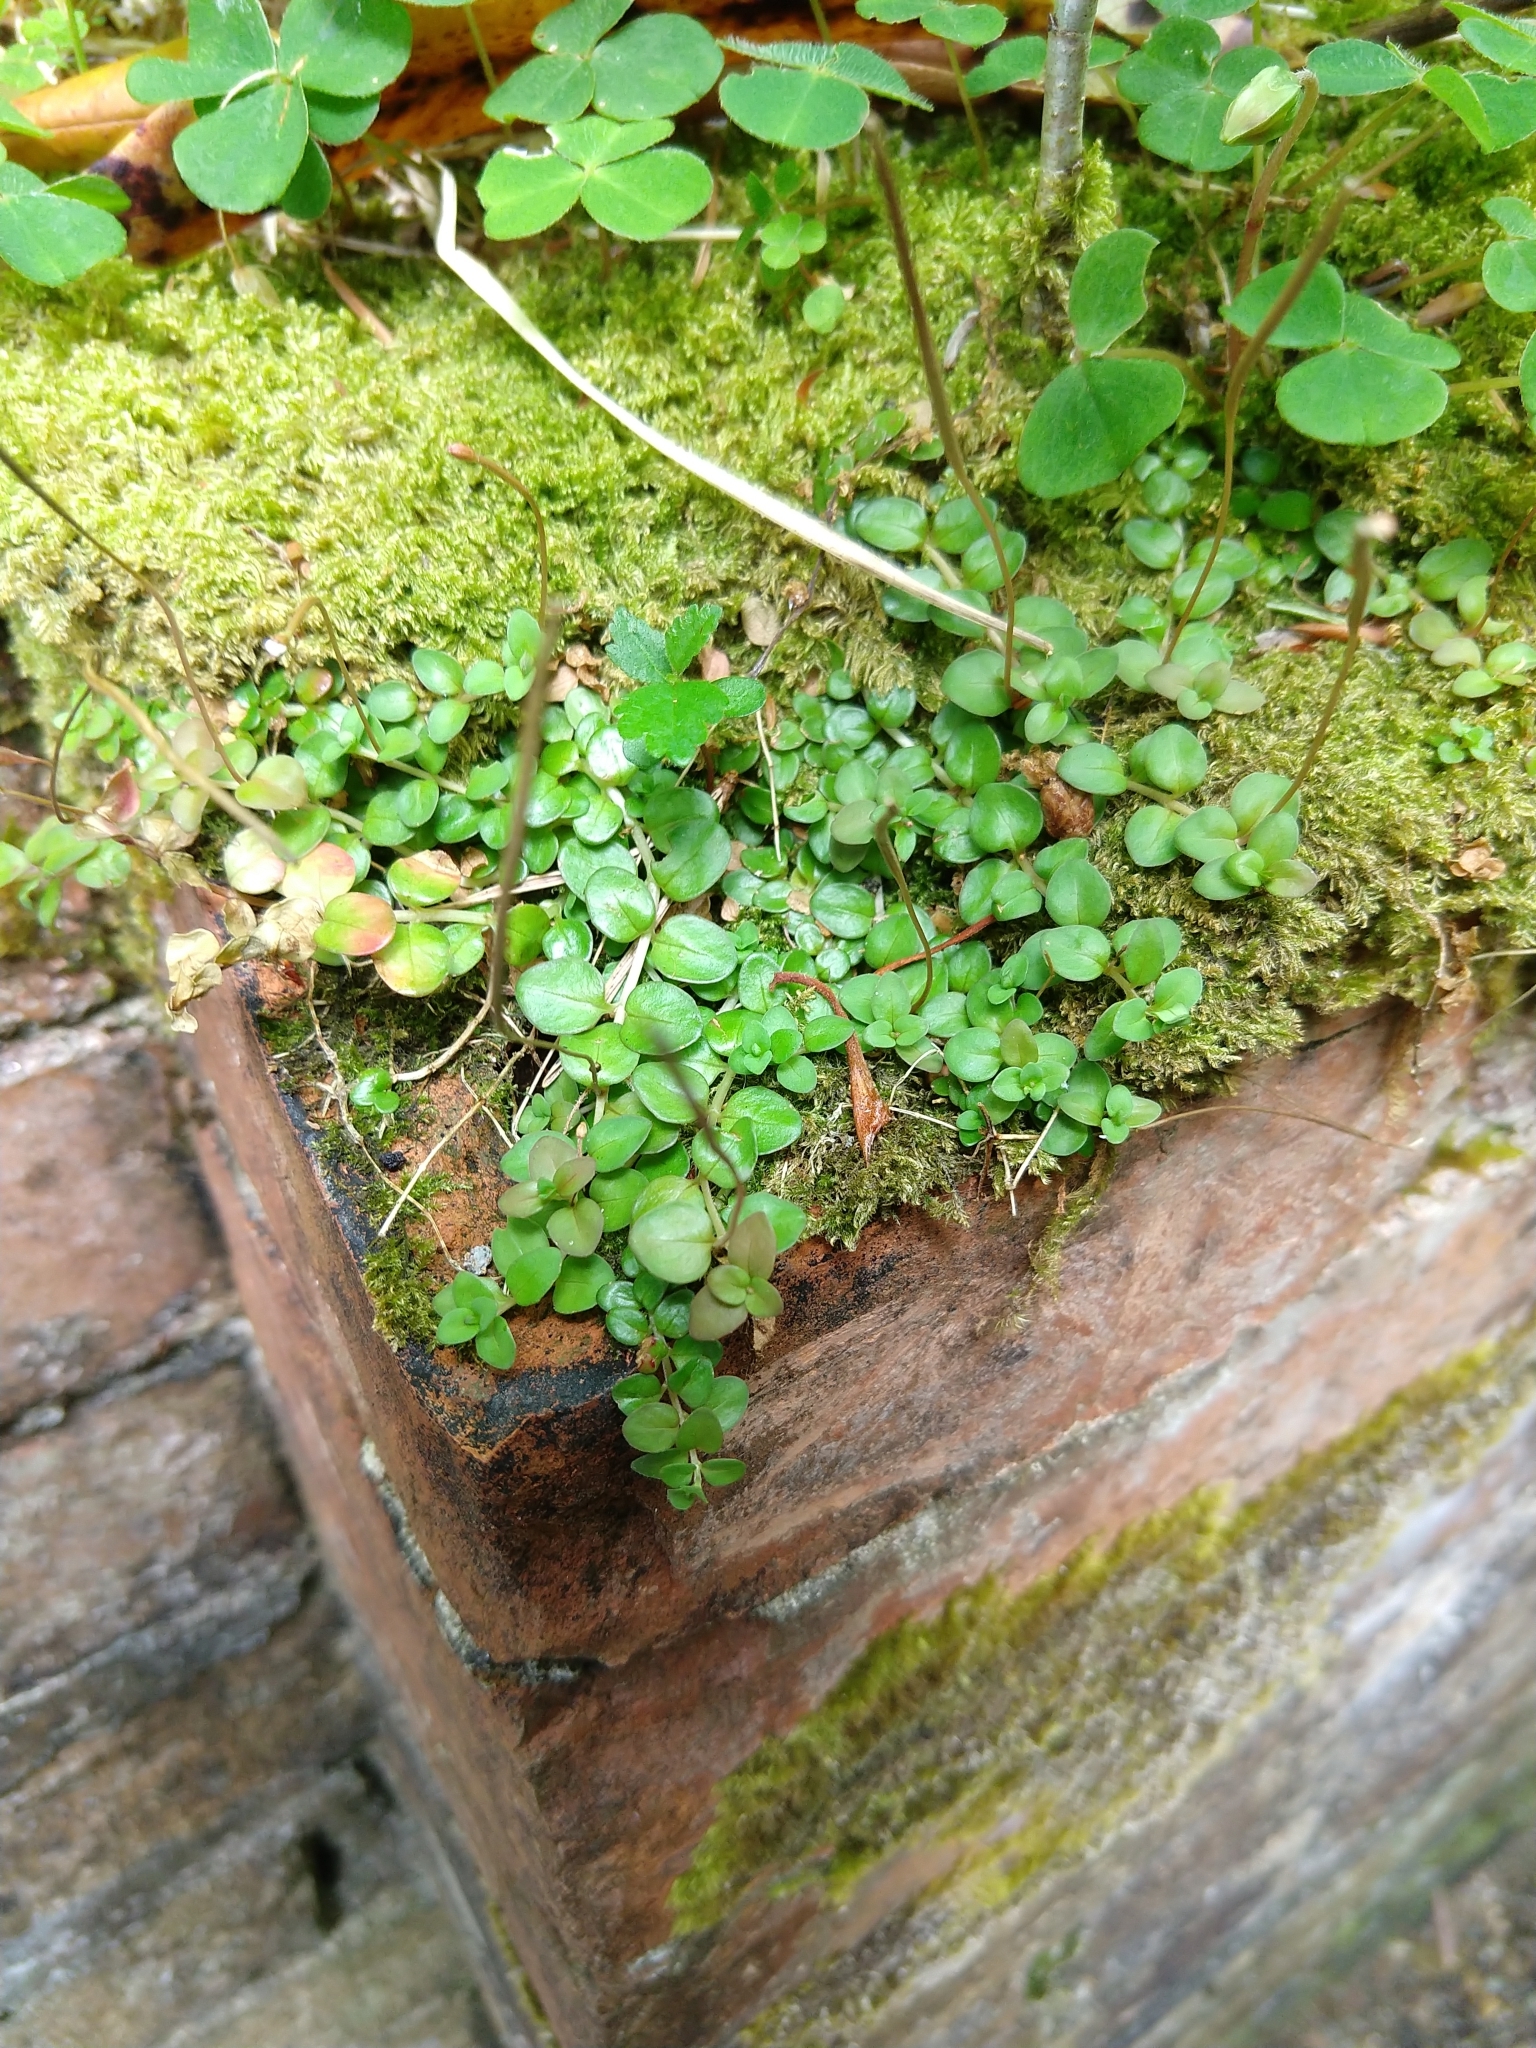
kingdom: Plantae
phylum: Tracheophyta
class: Magnoliopsida
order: Myrtales
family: Onagraceae
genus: Epilobium
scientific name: Epilobium brunnescens
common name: New zealand willowherb
